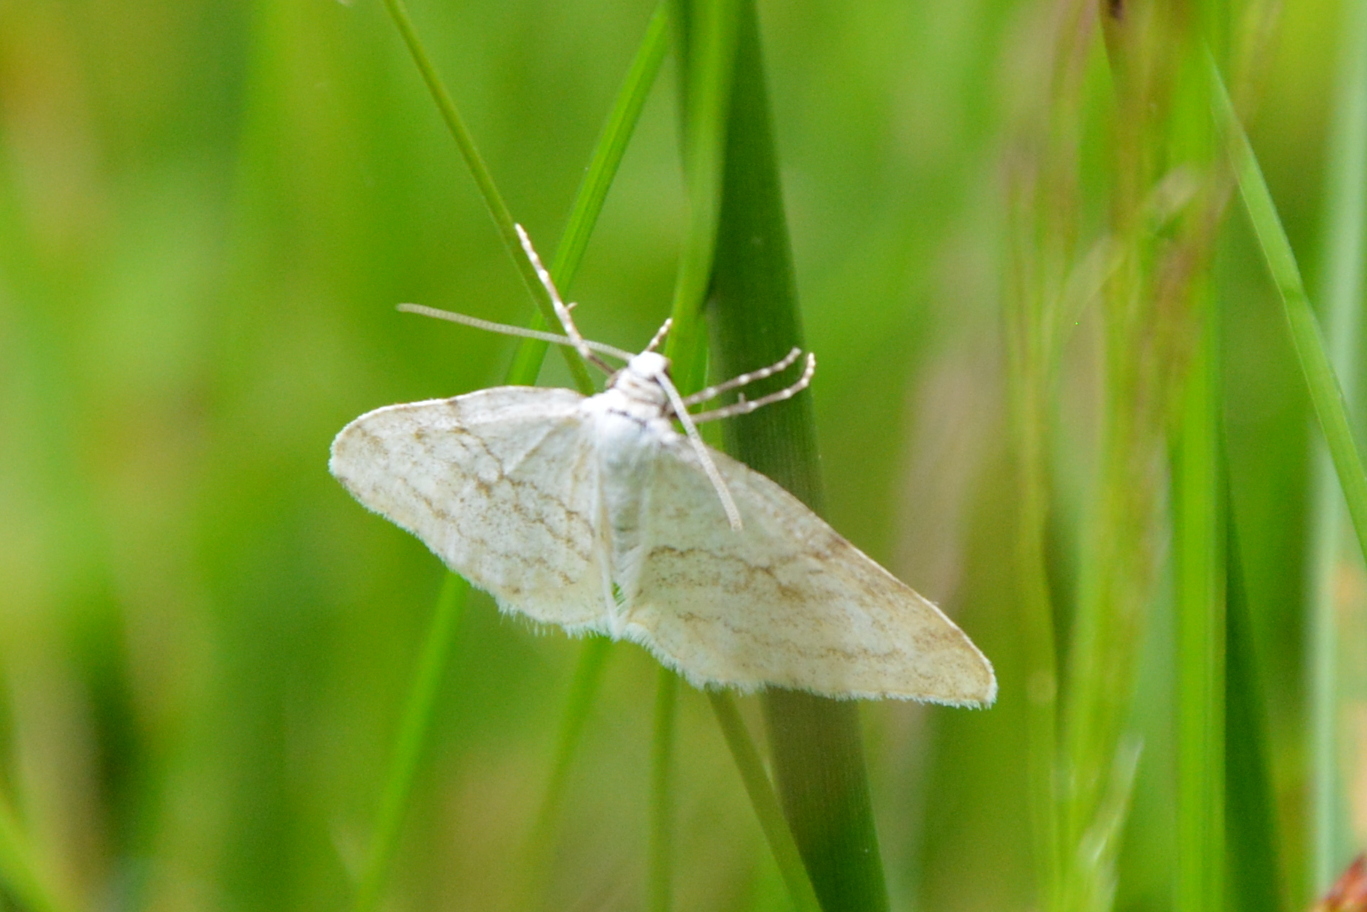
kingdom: Animalia
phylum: Arthropoda
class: Insecta
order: Lepidoptera
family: Geometridae
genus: Perizoma
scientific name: Perizoma verberata
